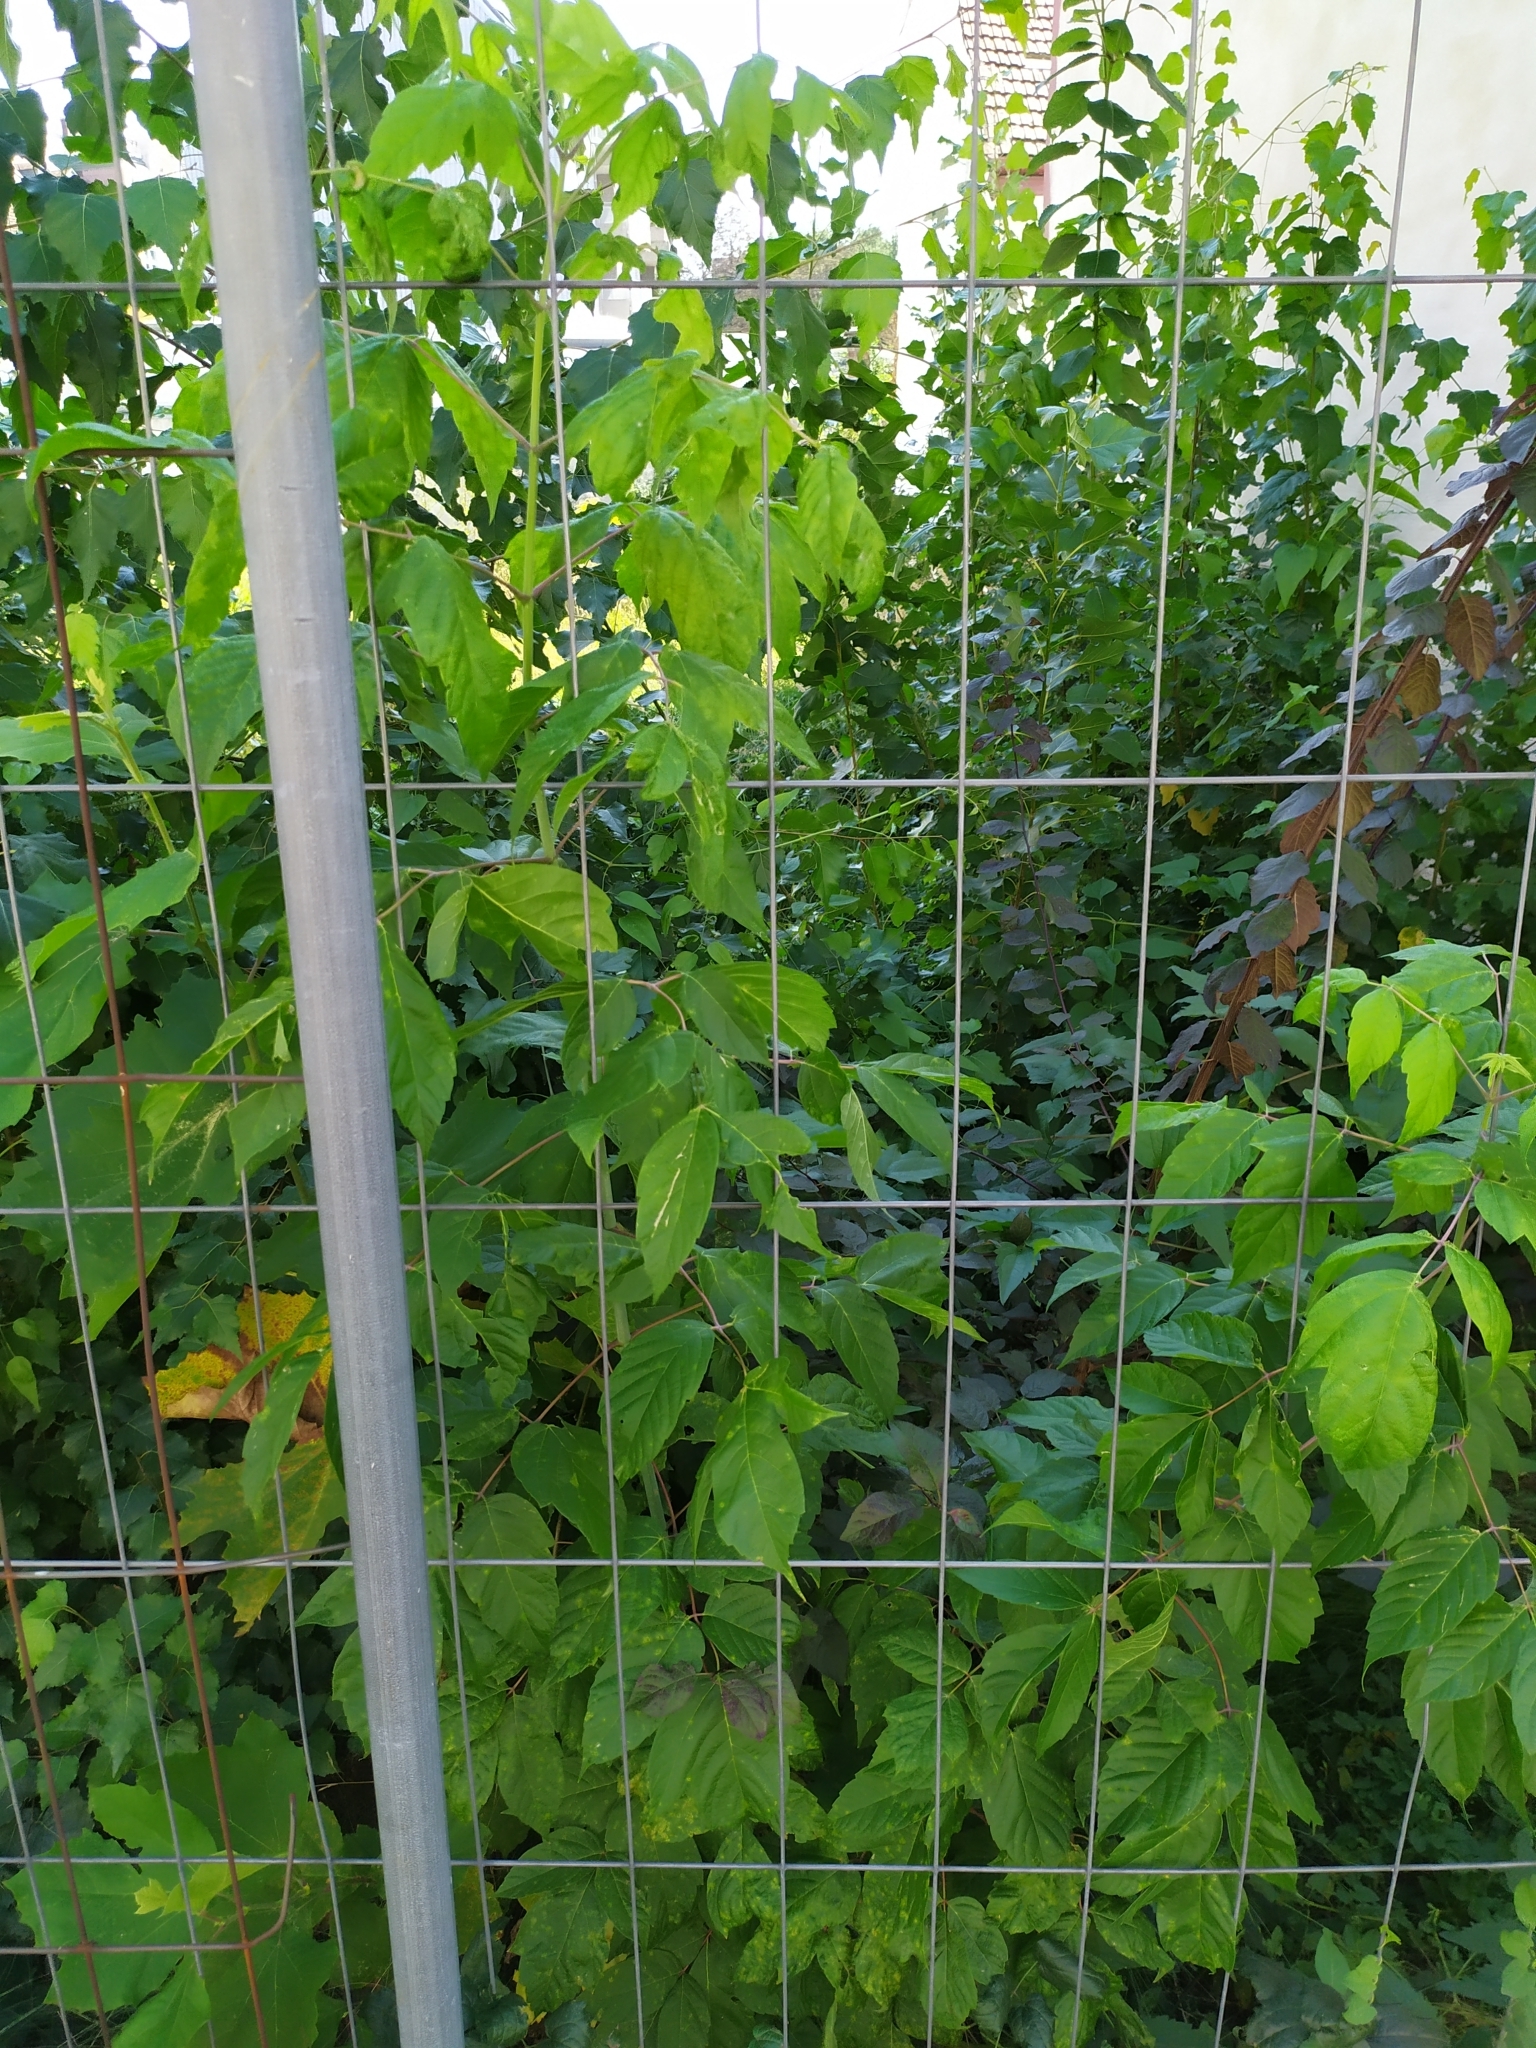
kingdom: Plantae
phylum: Tracheophyta
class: Magnoliopsida
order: Sapindales
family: Sapindaceae
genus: Acer
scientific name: Acer negundo
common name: Ashleaf maple
